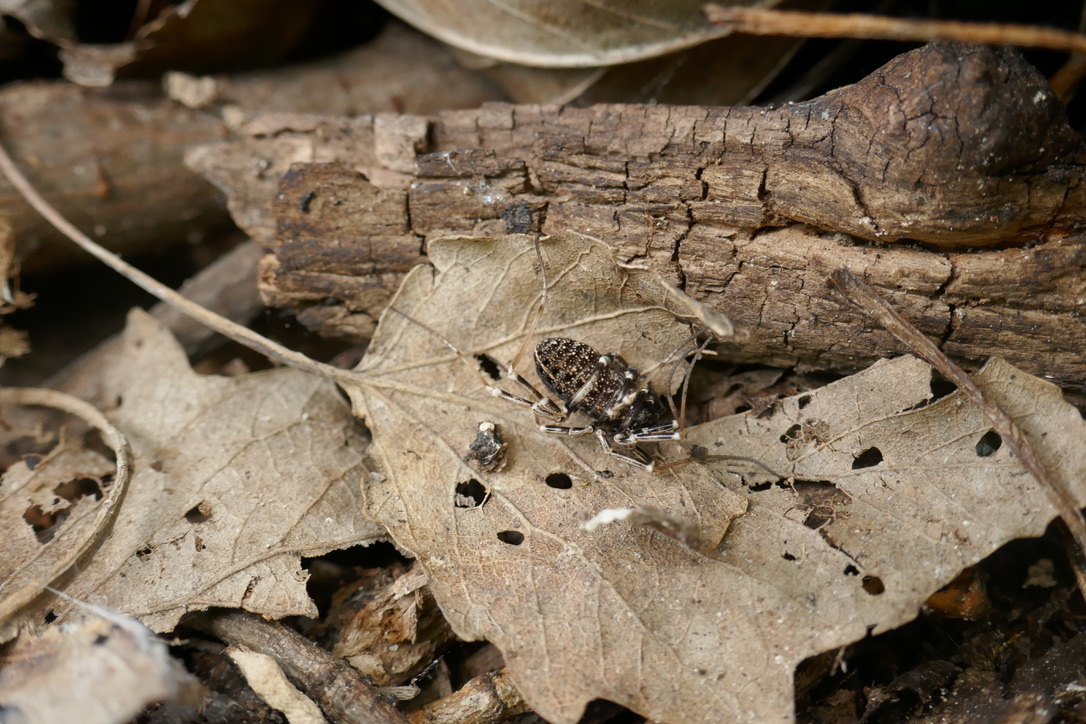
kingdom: Animalia
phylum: Arthropoda
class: Arachnida
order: Opiliones
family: Phalangiidae
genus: Egaenus
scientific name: Egaenus convexus
